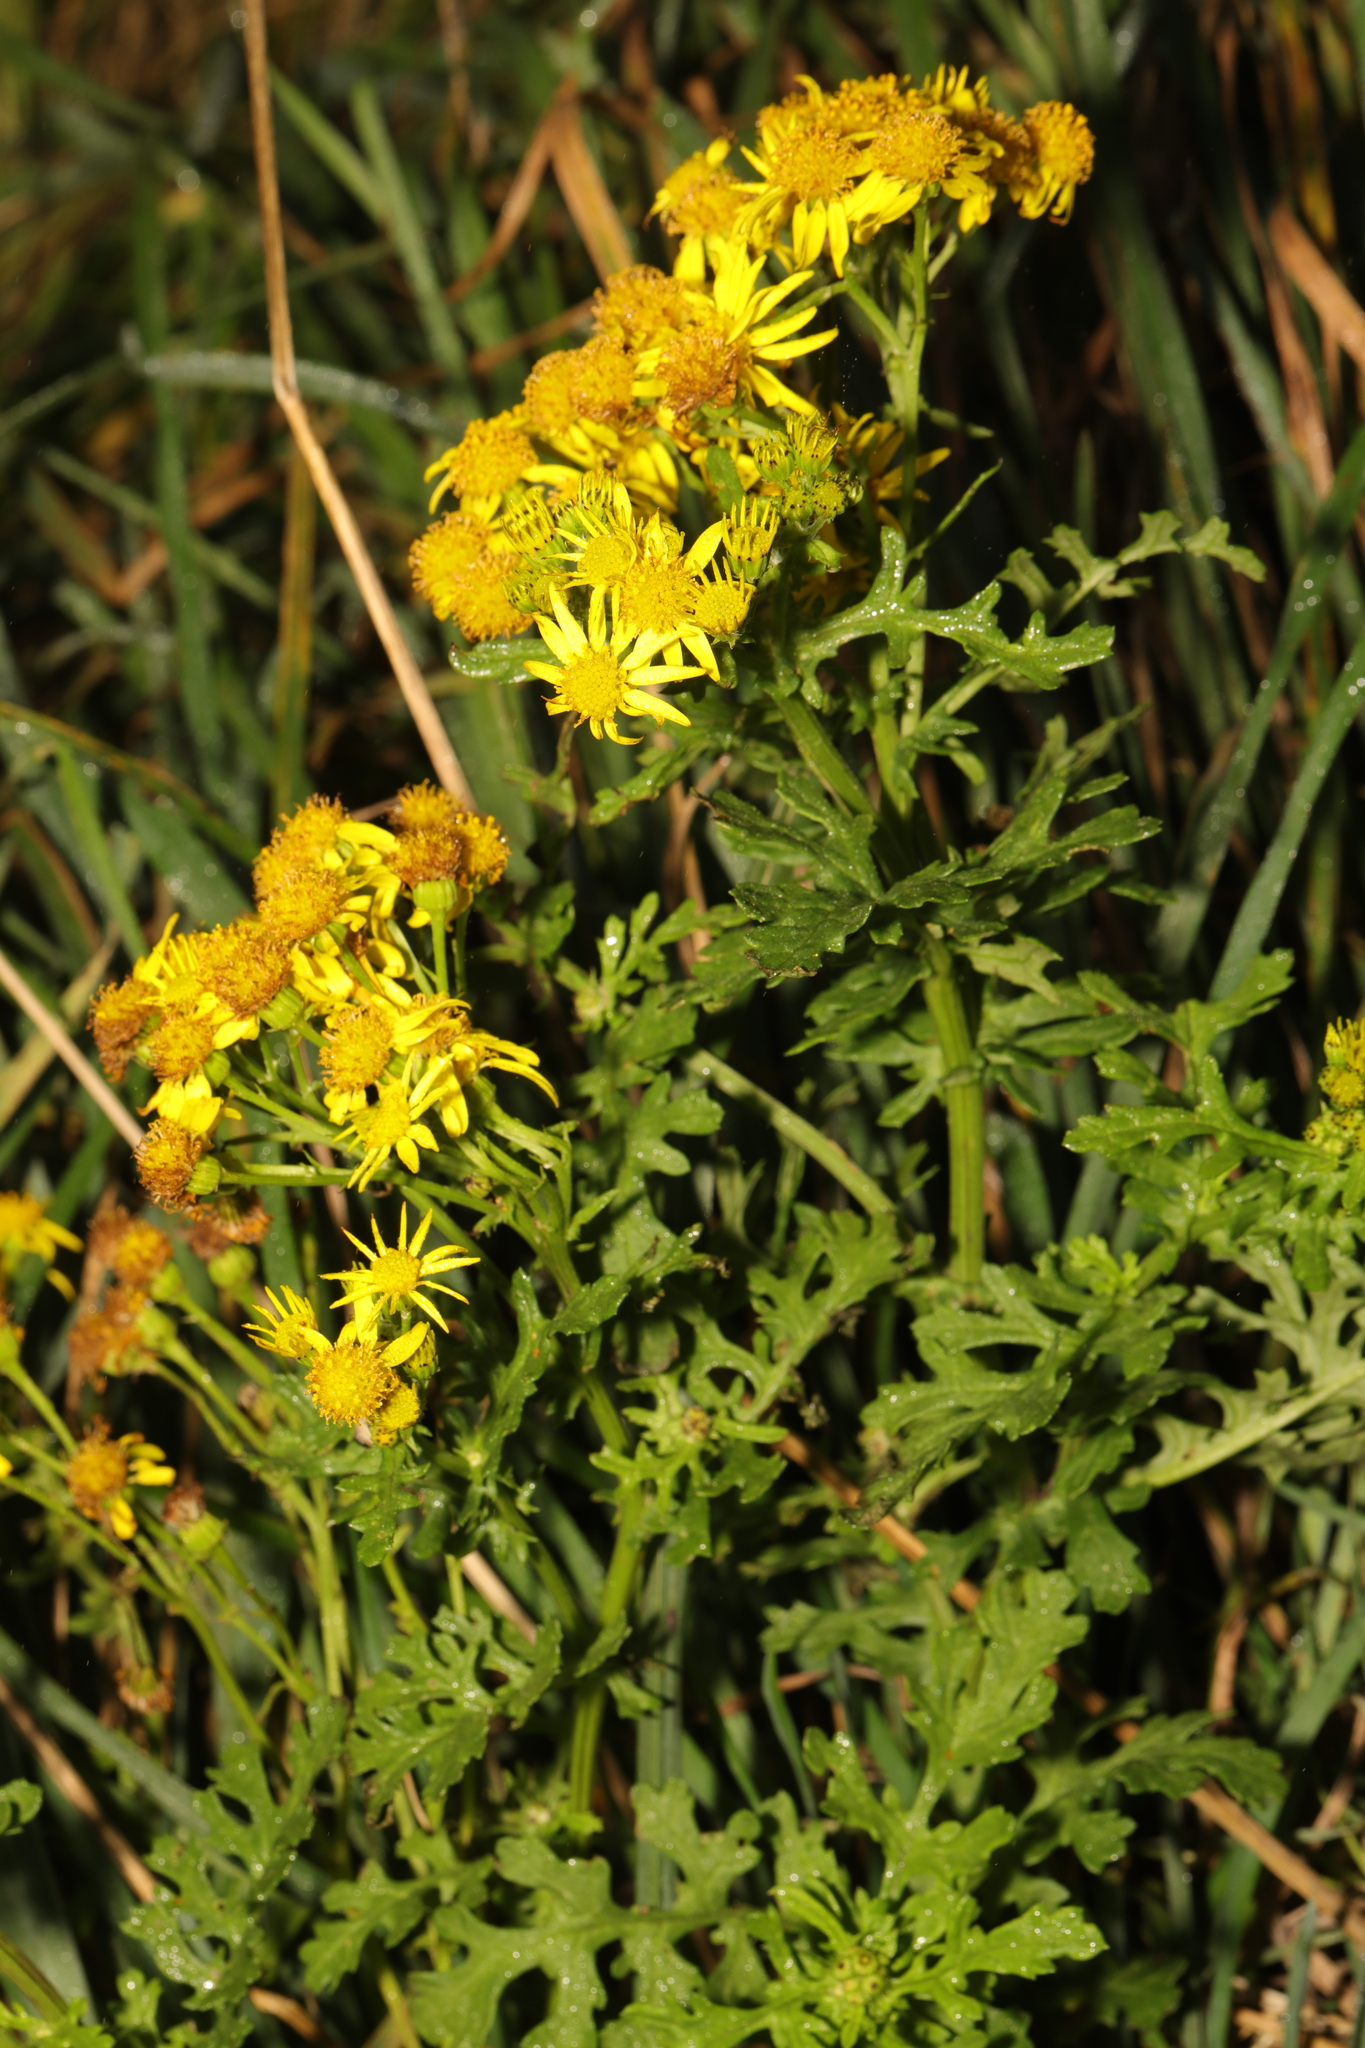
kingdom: Plantae
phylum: Tracheophyta
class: Magnoliopsida
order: Asterales
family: Asteraceae
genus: Jacobaea
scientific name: Jacobaea vulgaris
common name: Stinking willie
